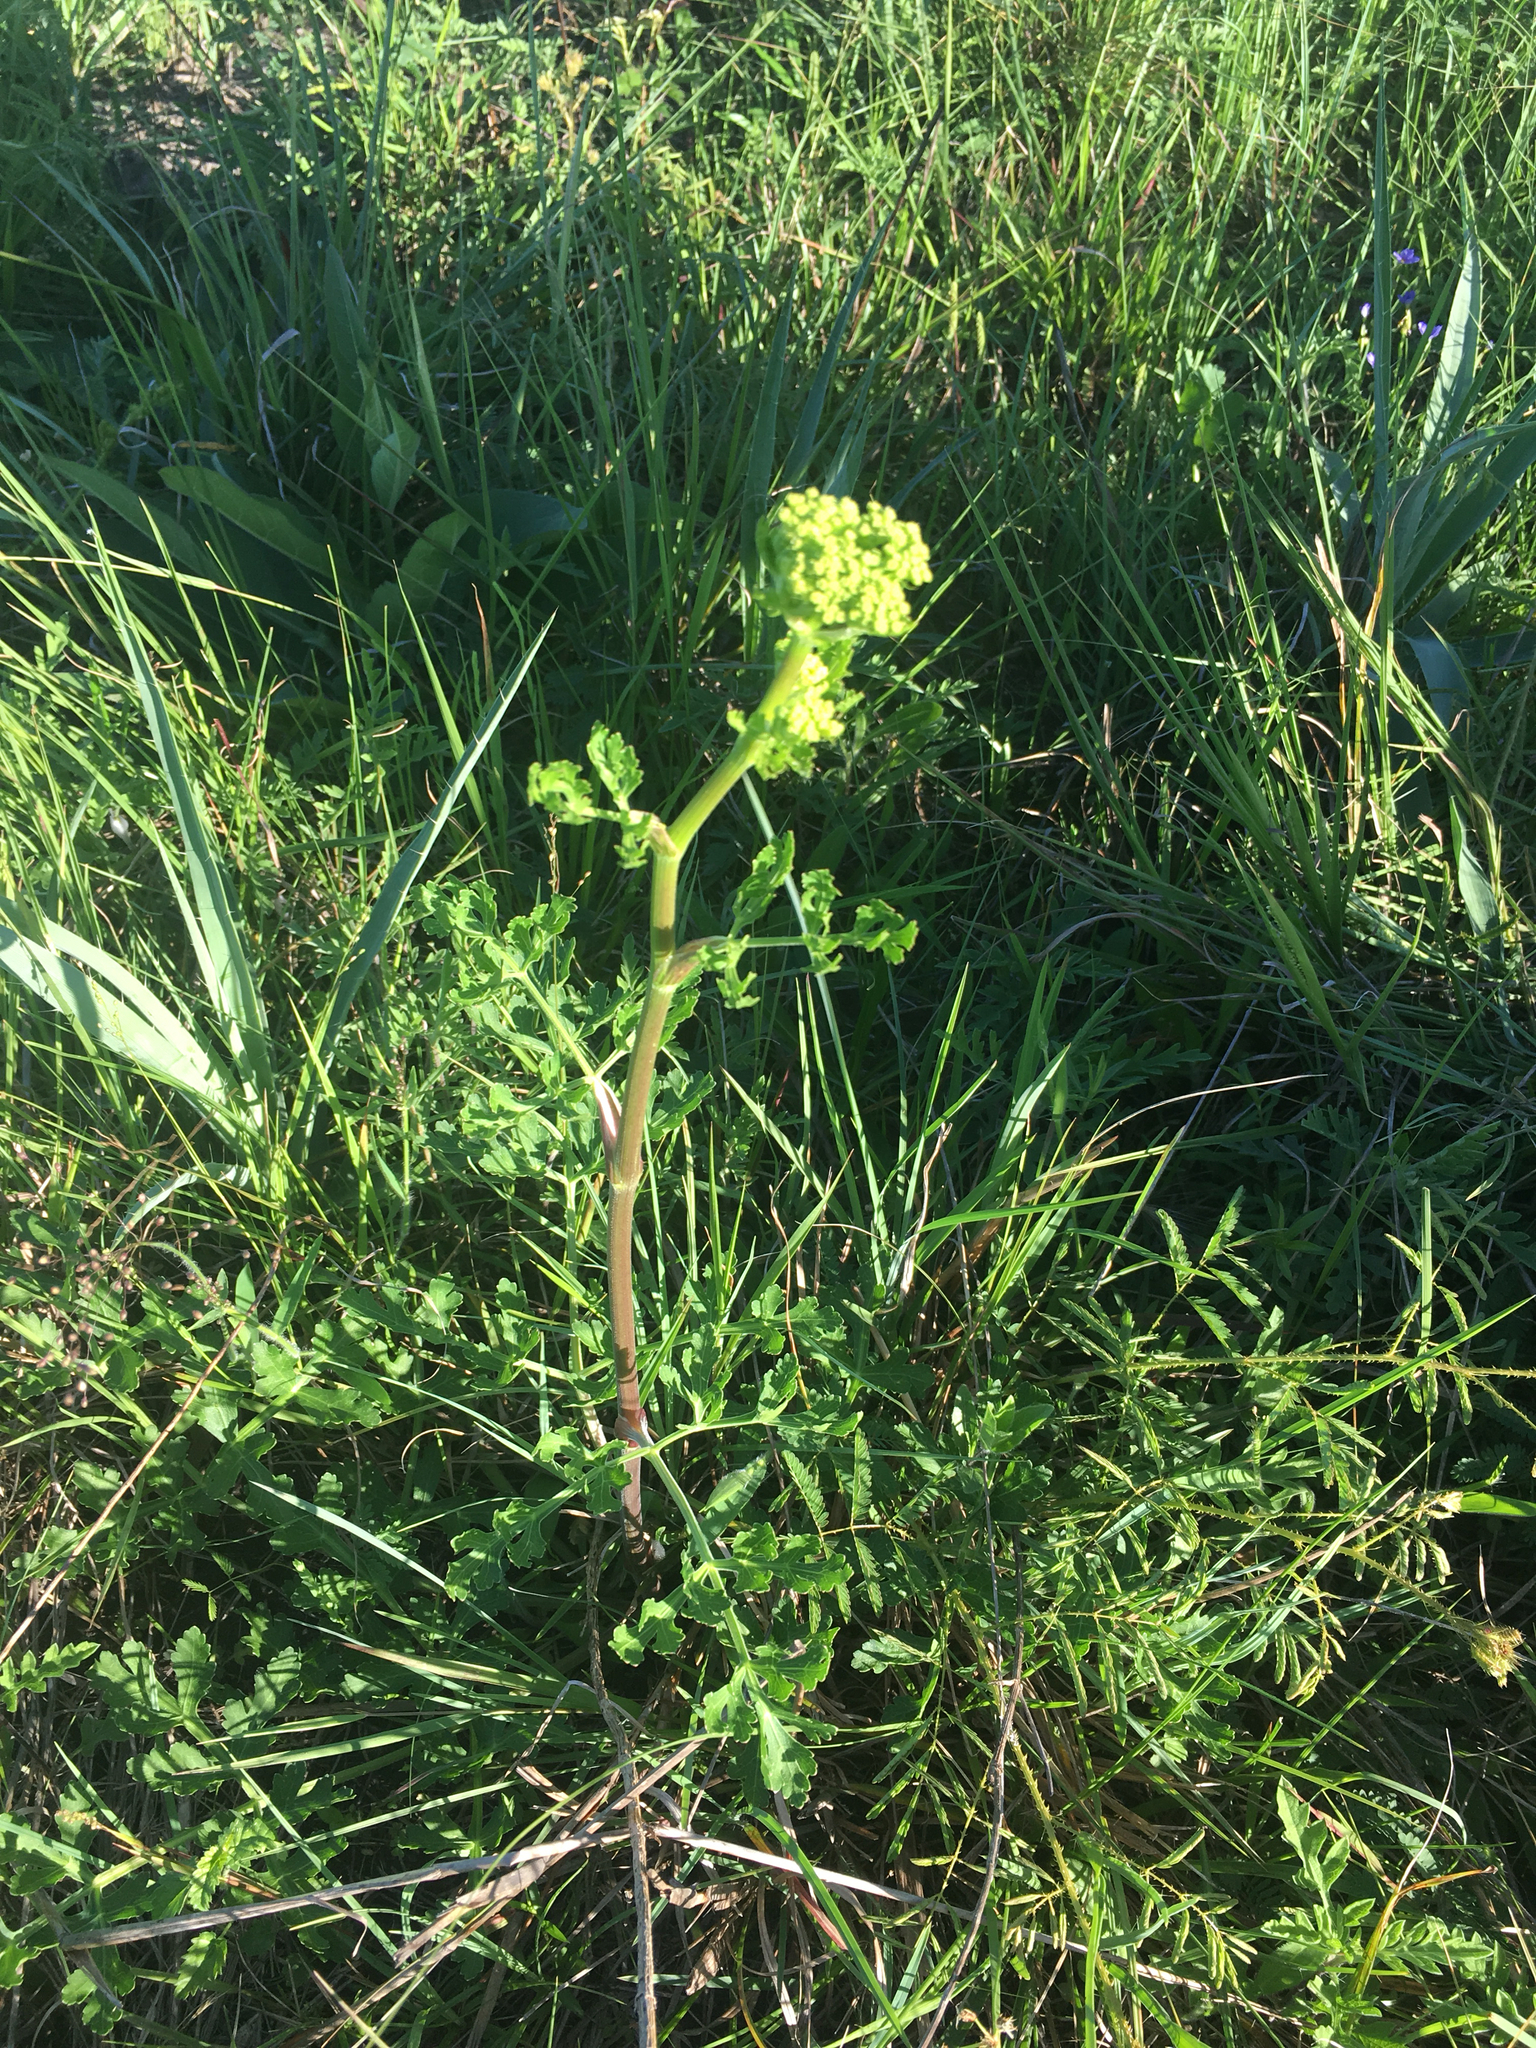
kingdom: Plantae
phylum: Tracheophyta
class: Magnoliopsida
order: Apiales
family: Apiaceae
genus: Polytaenia
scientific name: Polytaenia texana
